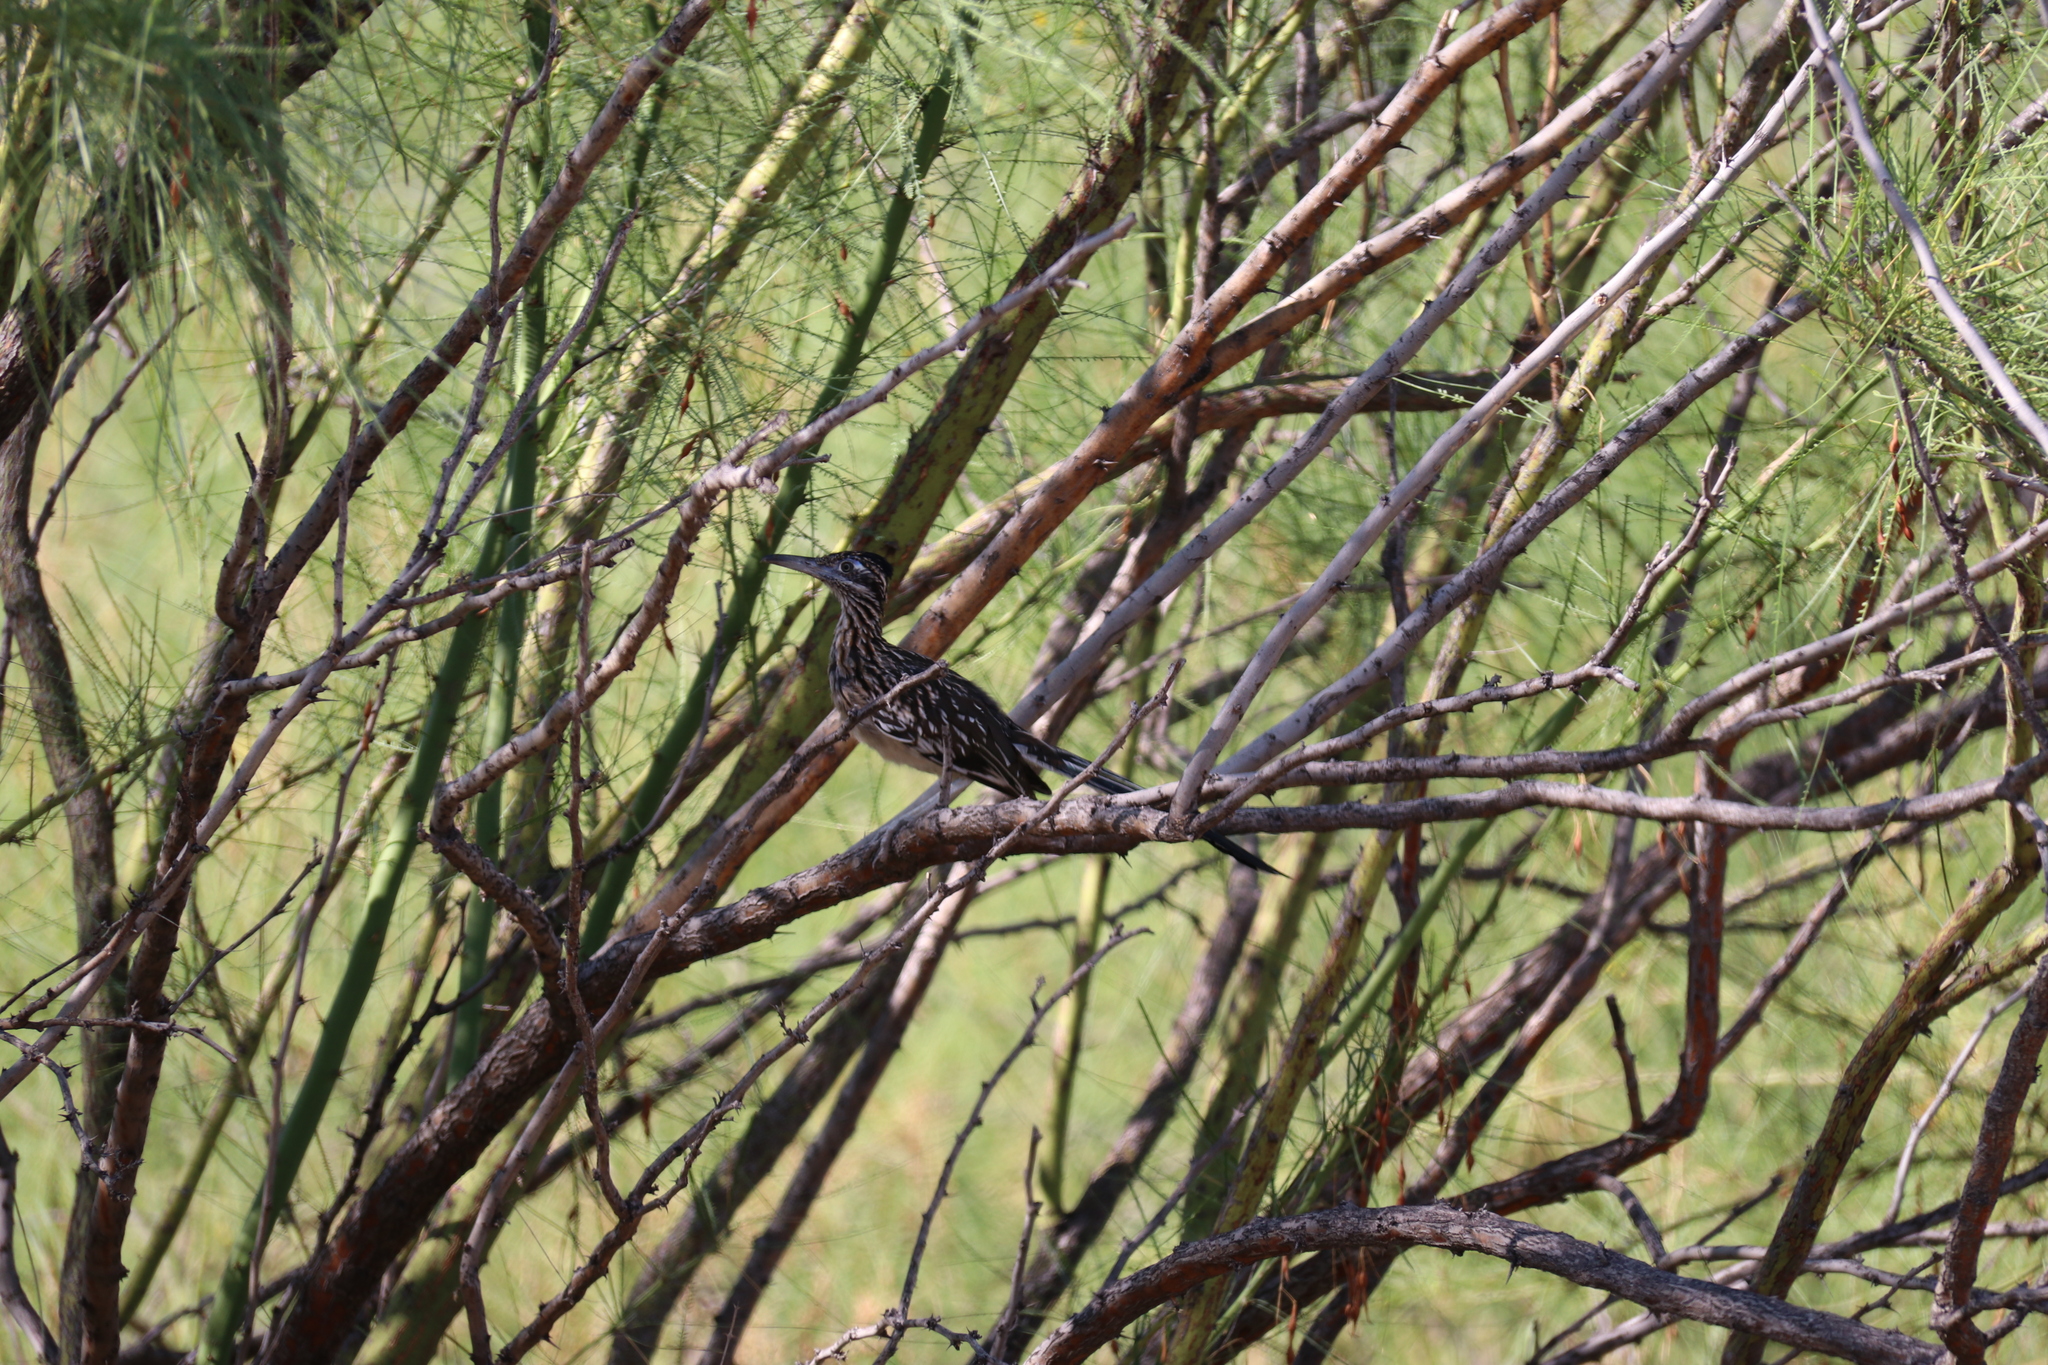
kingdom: Animalia
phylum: Chordata
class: Aves
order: Cuculiformes
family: Cuculidae
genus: Geococcyx
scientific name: Geococcyx californianus
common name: Greater roadrunner
